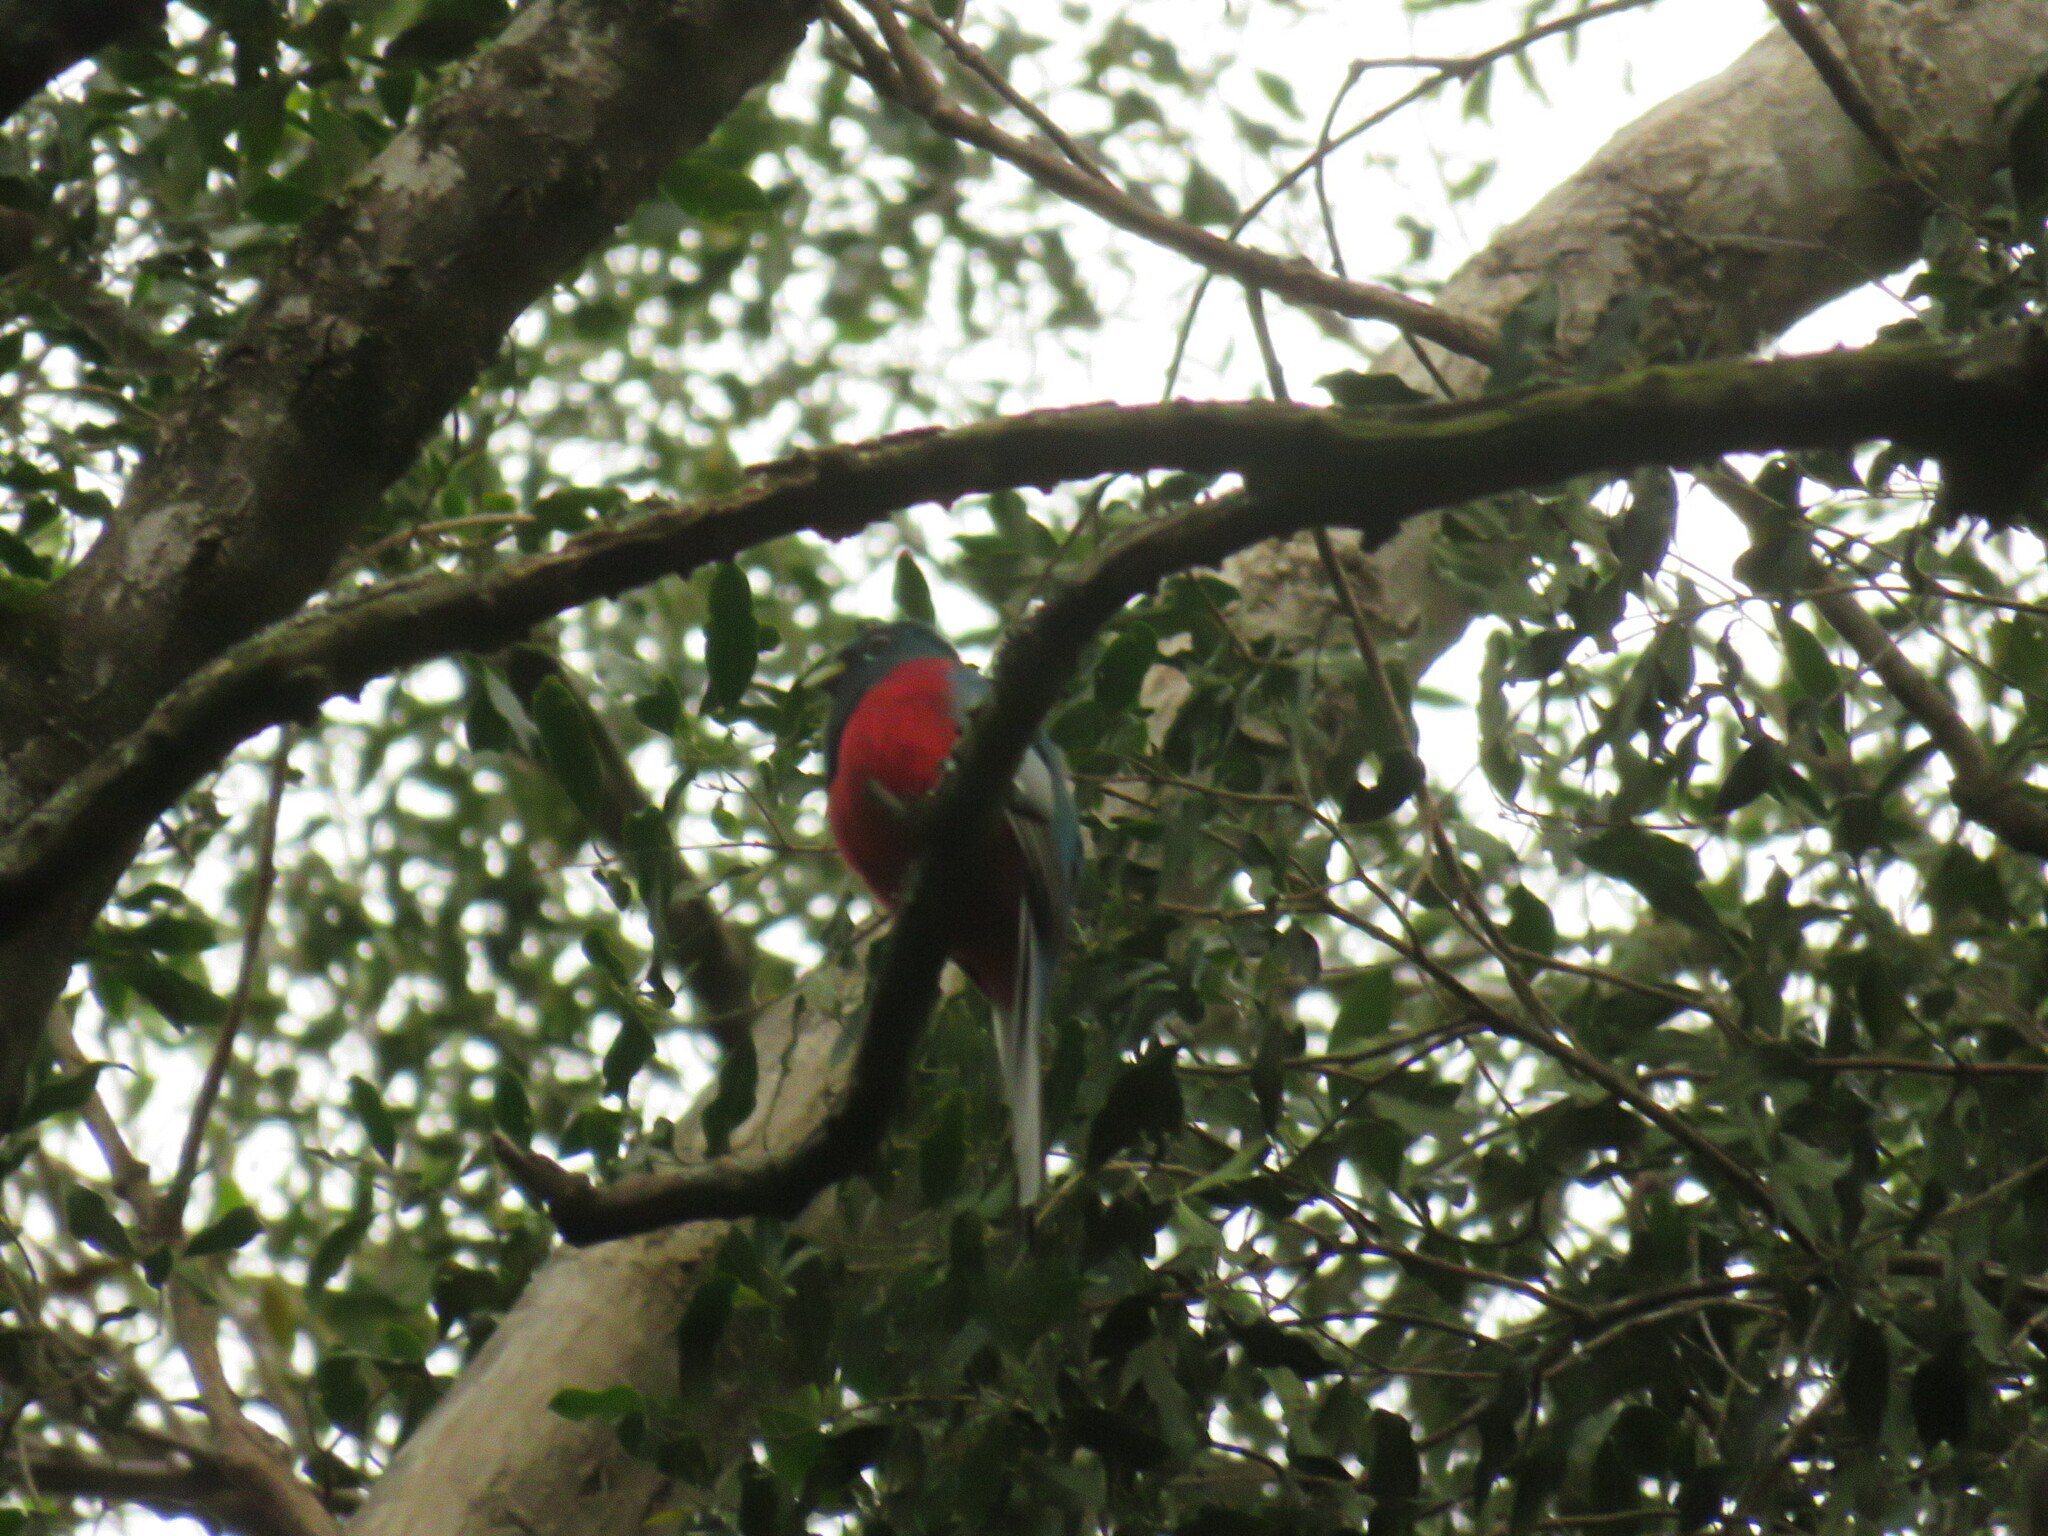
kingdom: Animalia
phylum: Chordata
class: Aves
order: Trogoniformes
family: Trogonidae
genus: Apaloderma
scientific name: Apaloderma narina
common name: Narina trogon
